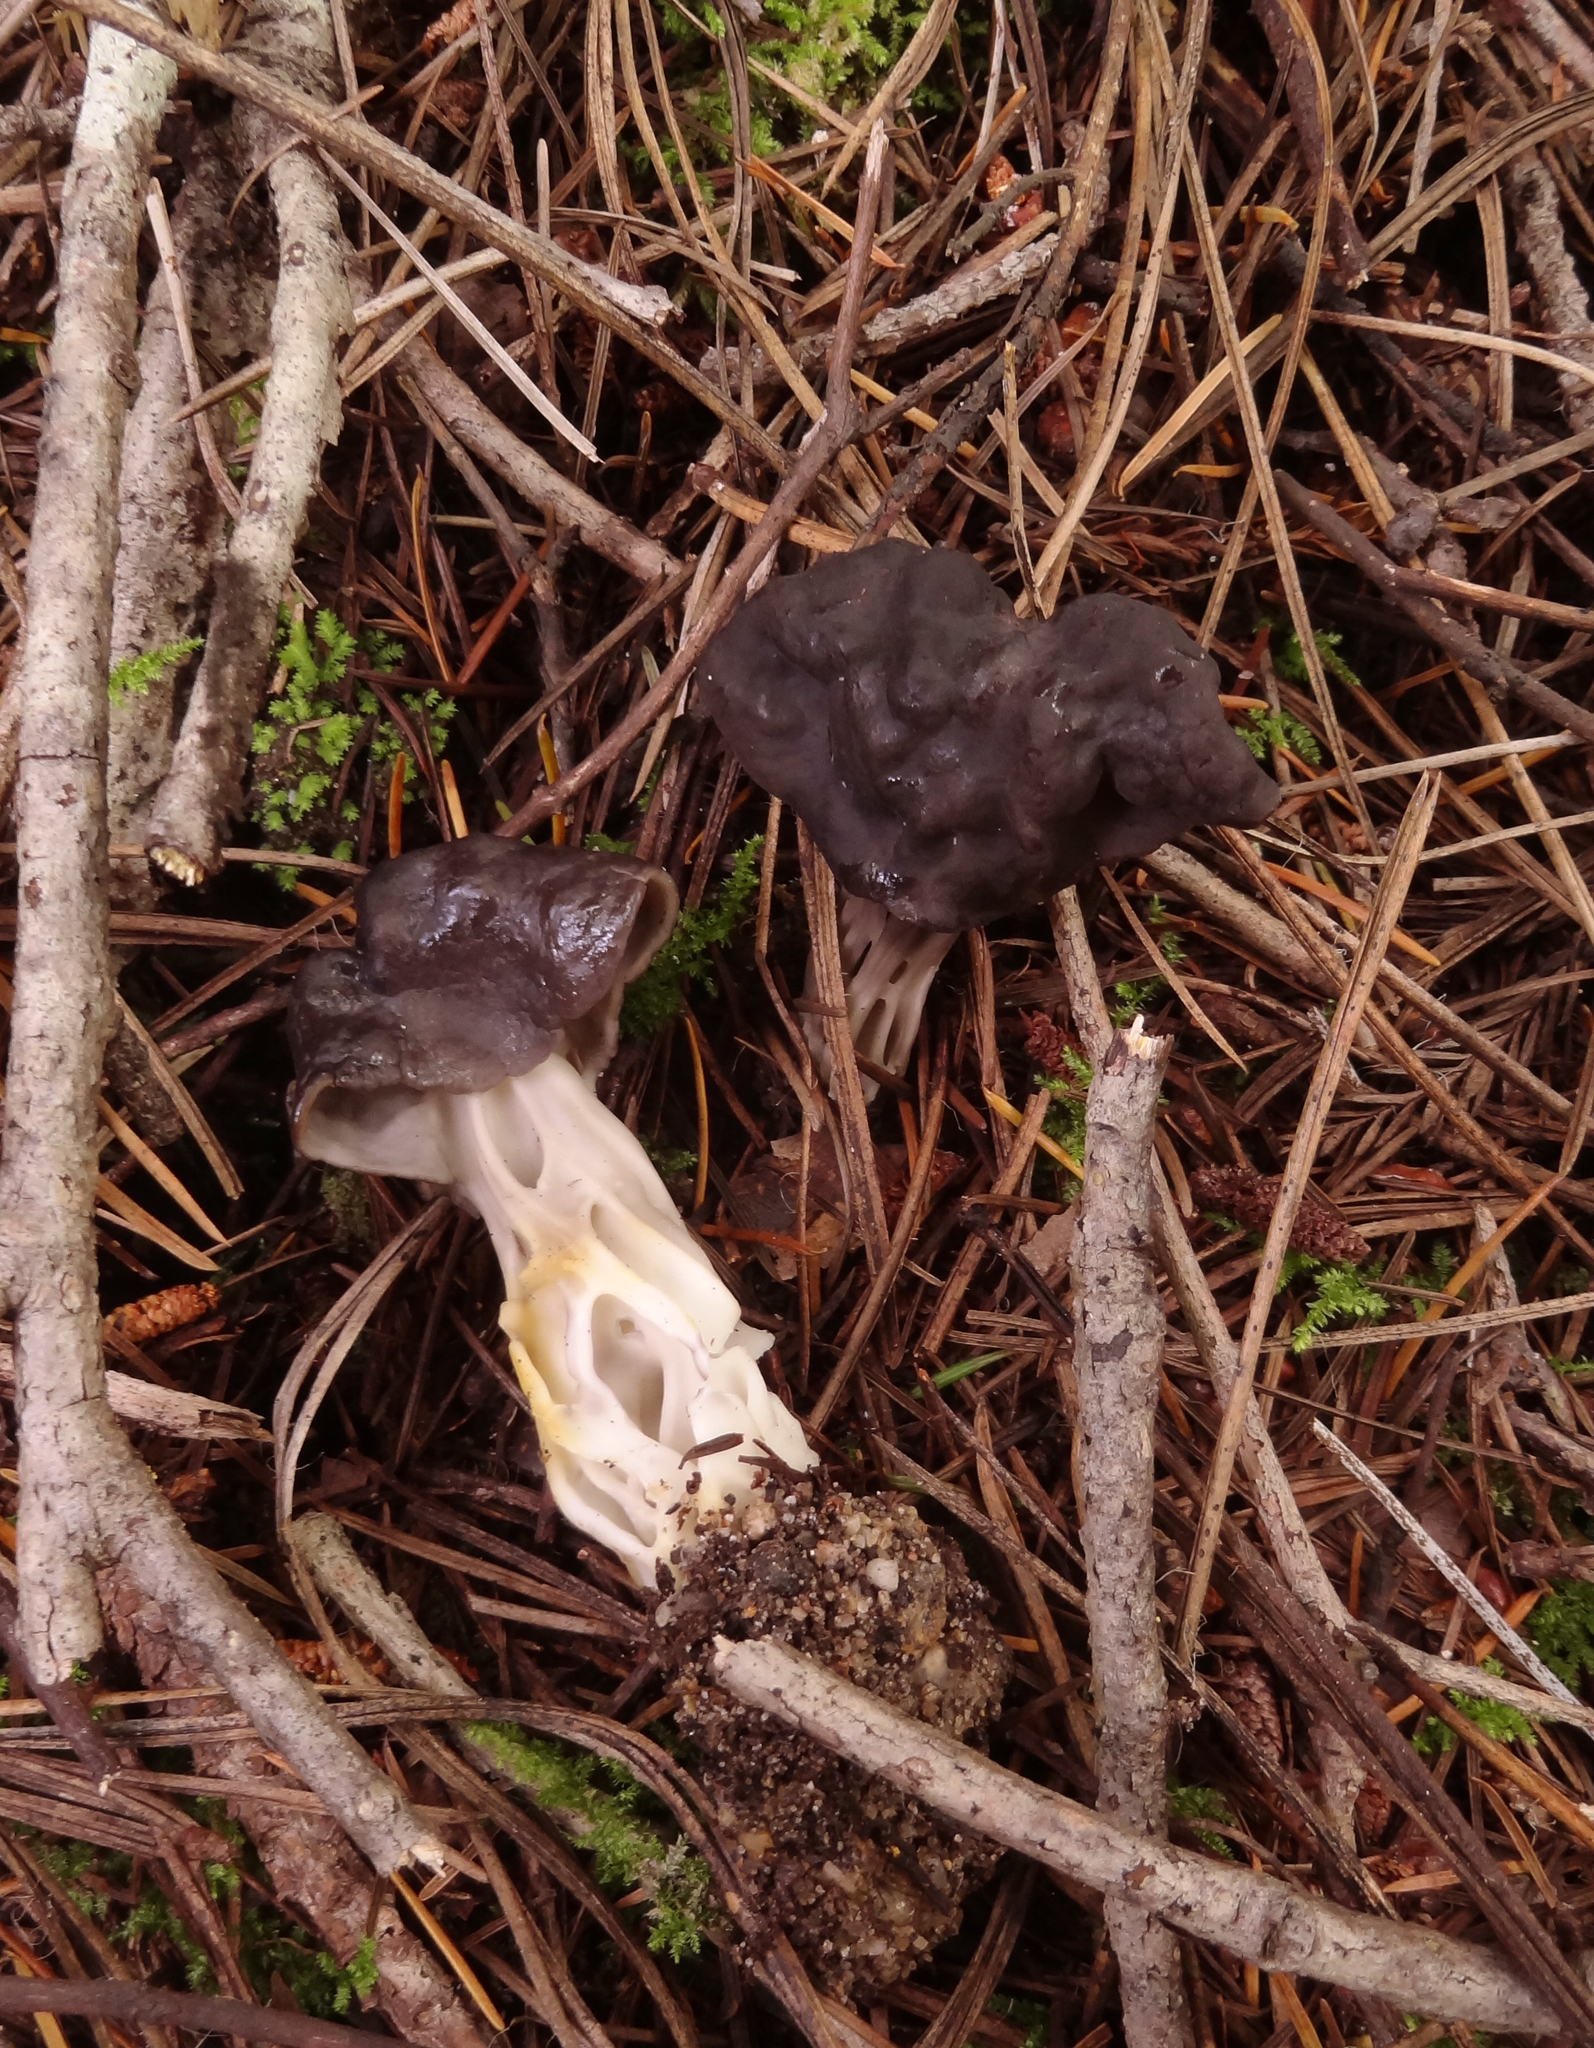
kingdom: Fungi
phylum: Ascomycota
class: Pezizomycetes
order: Pezizales
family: Helvellaceae
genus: Helvella
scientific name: Helvella vespertina
